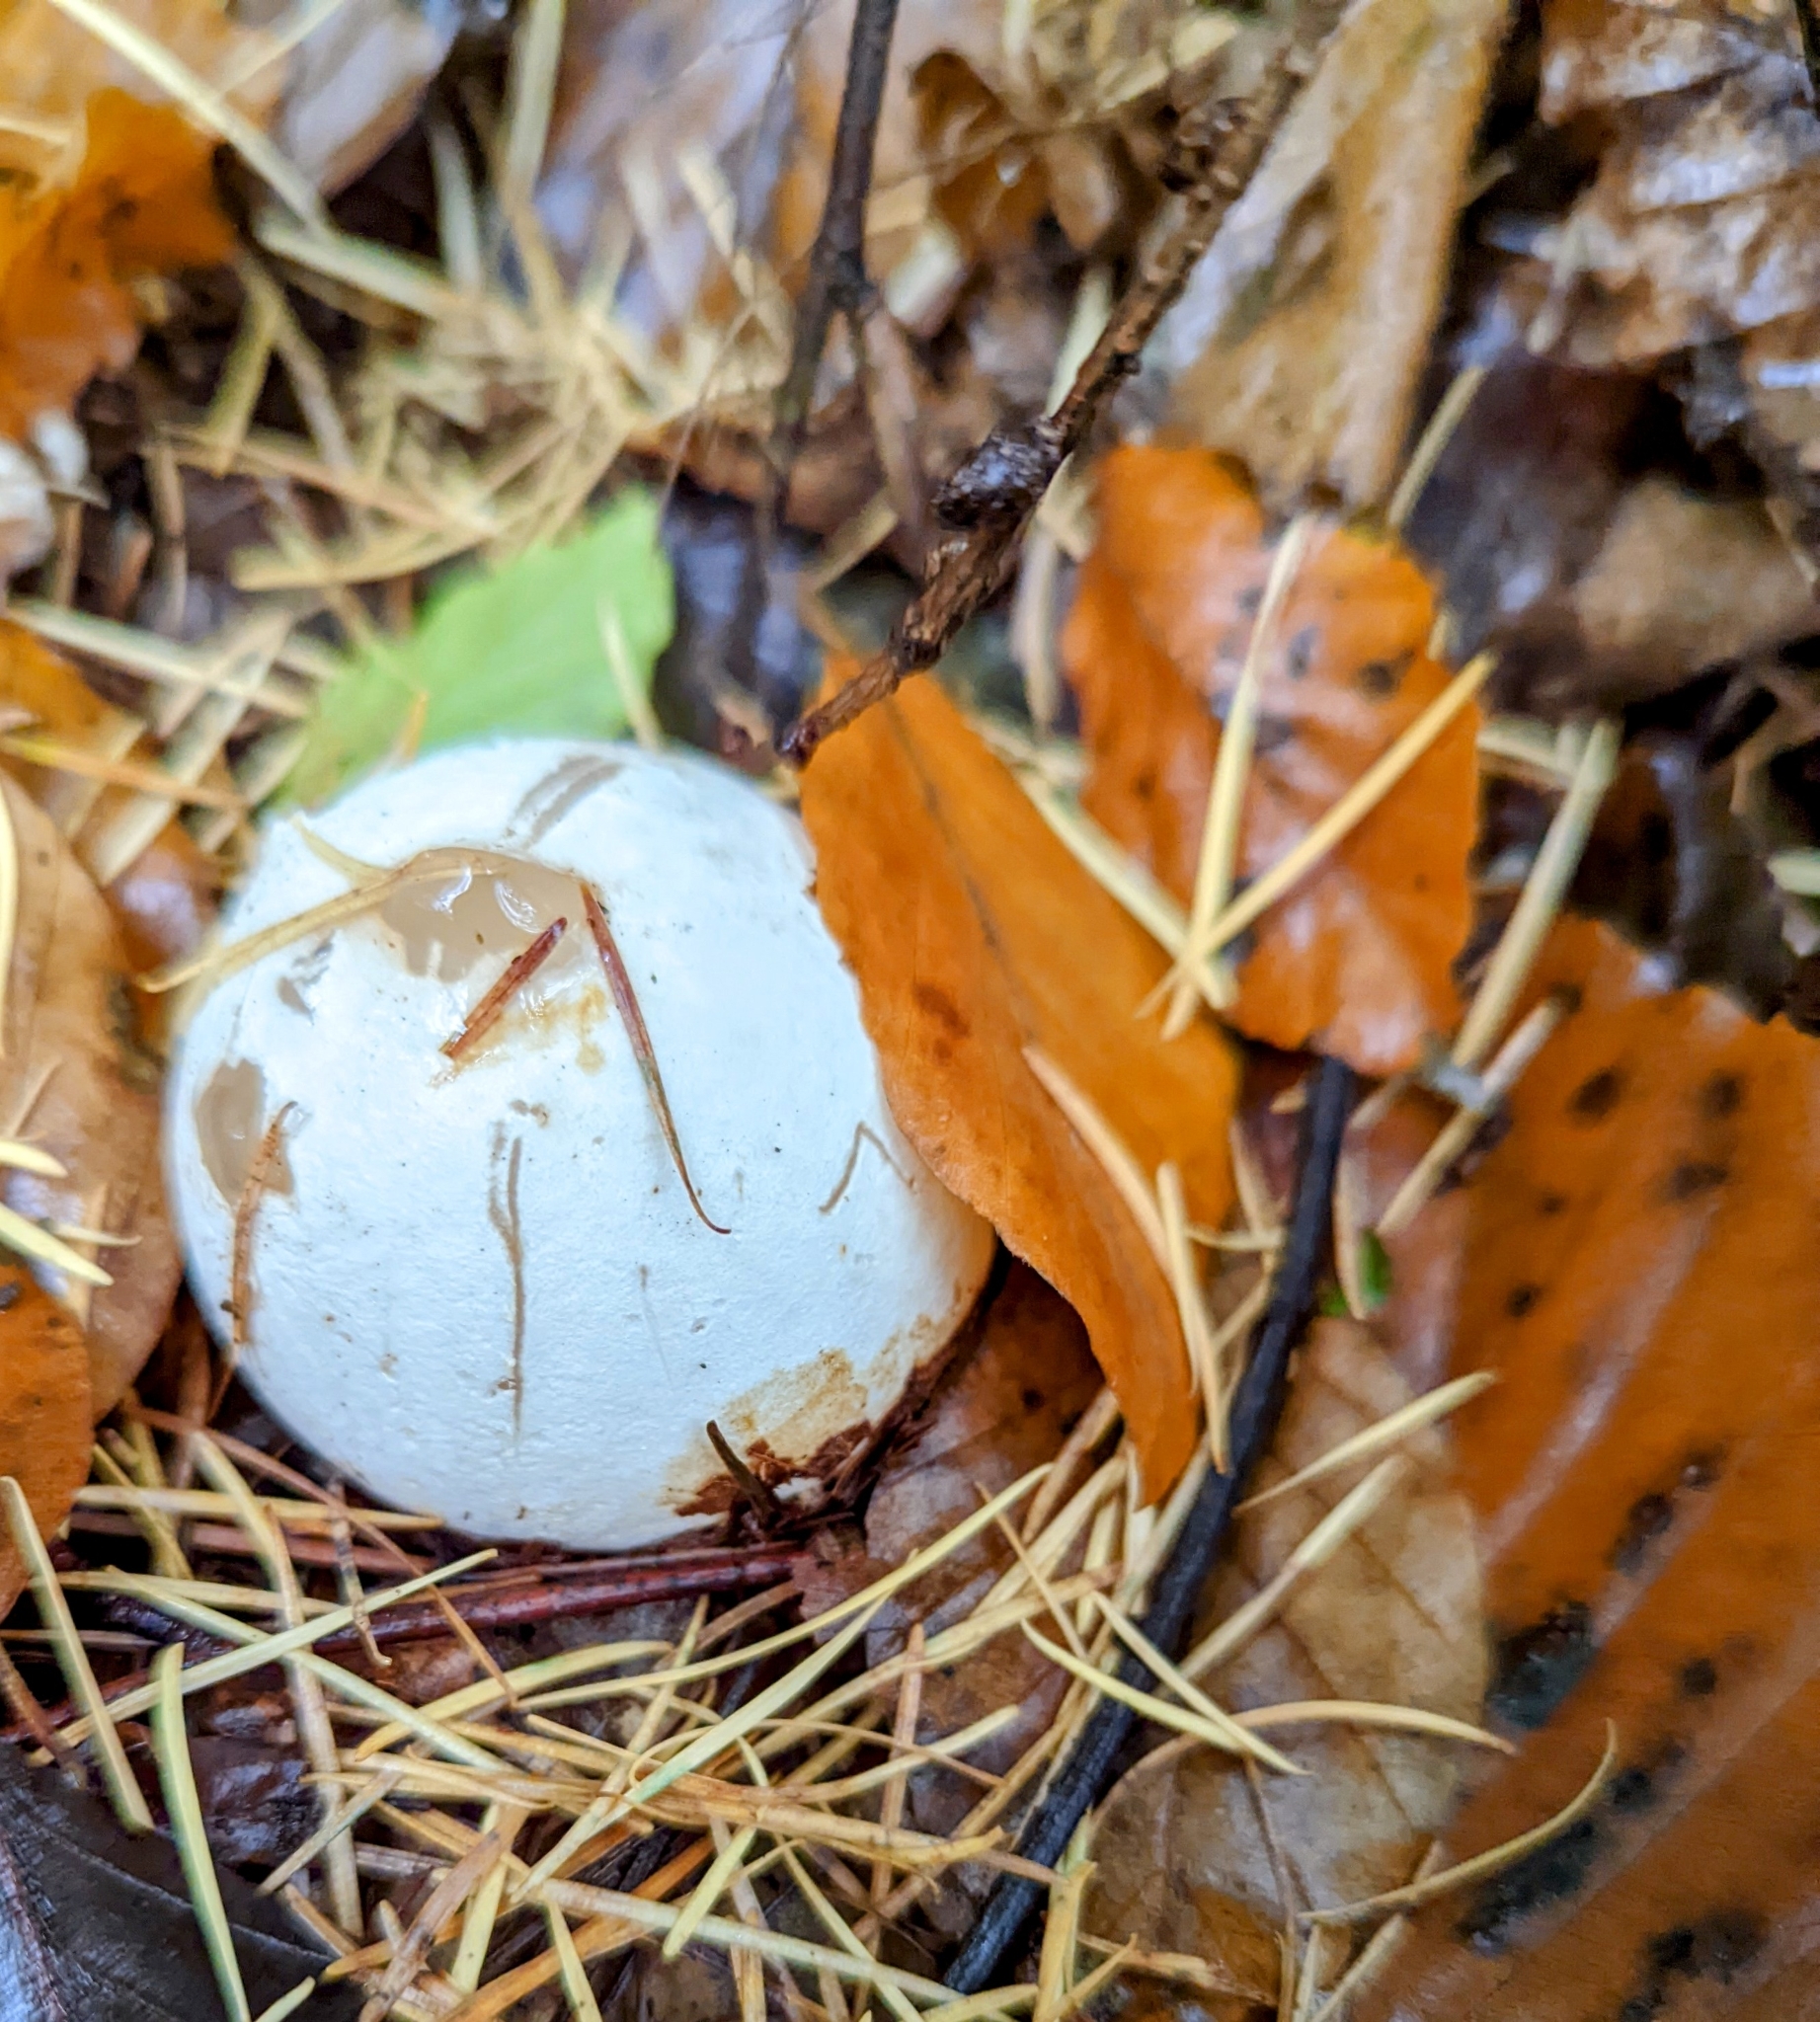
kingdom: Fungi
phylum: Basidiomycota
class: Agaricomycetes
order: Phallales
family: Phallaceae
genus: Phallus
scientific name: Phallus impudicus
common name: Common stinkhorn
